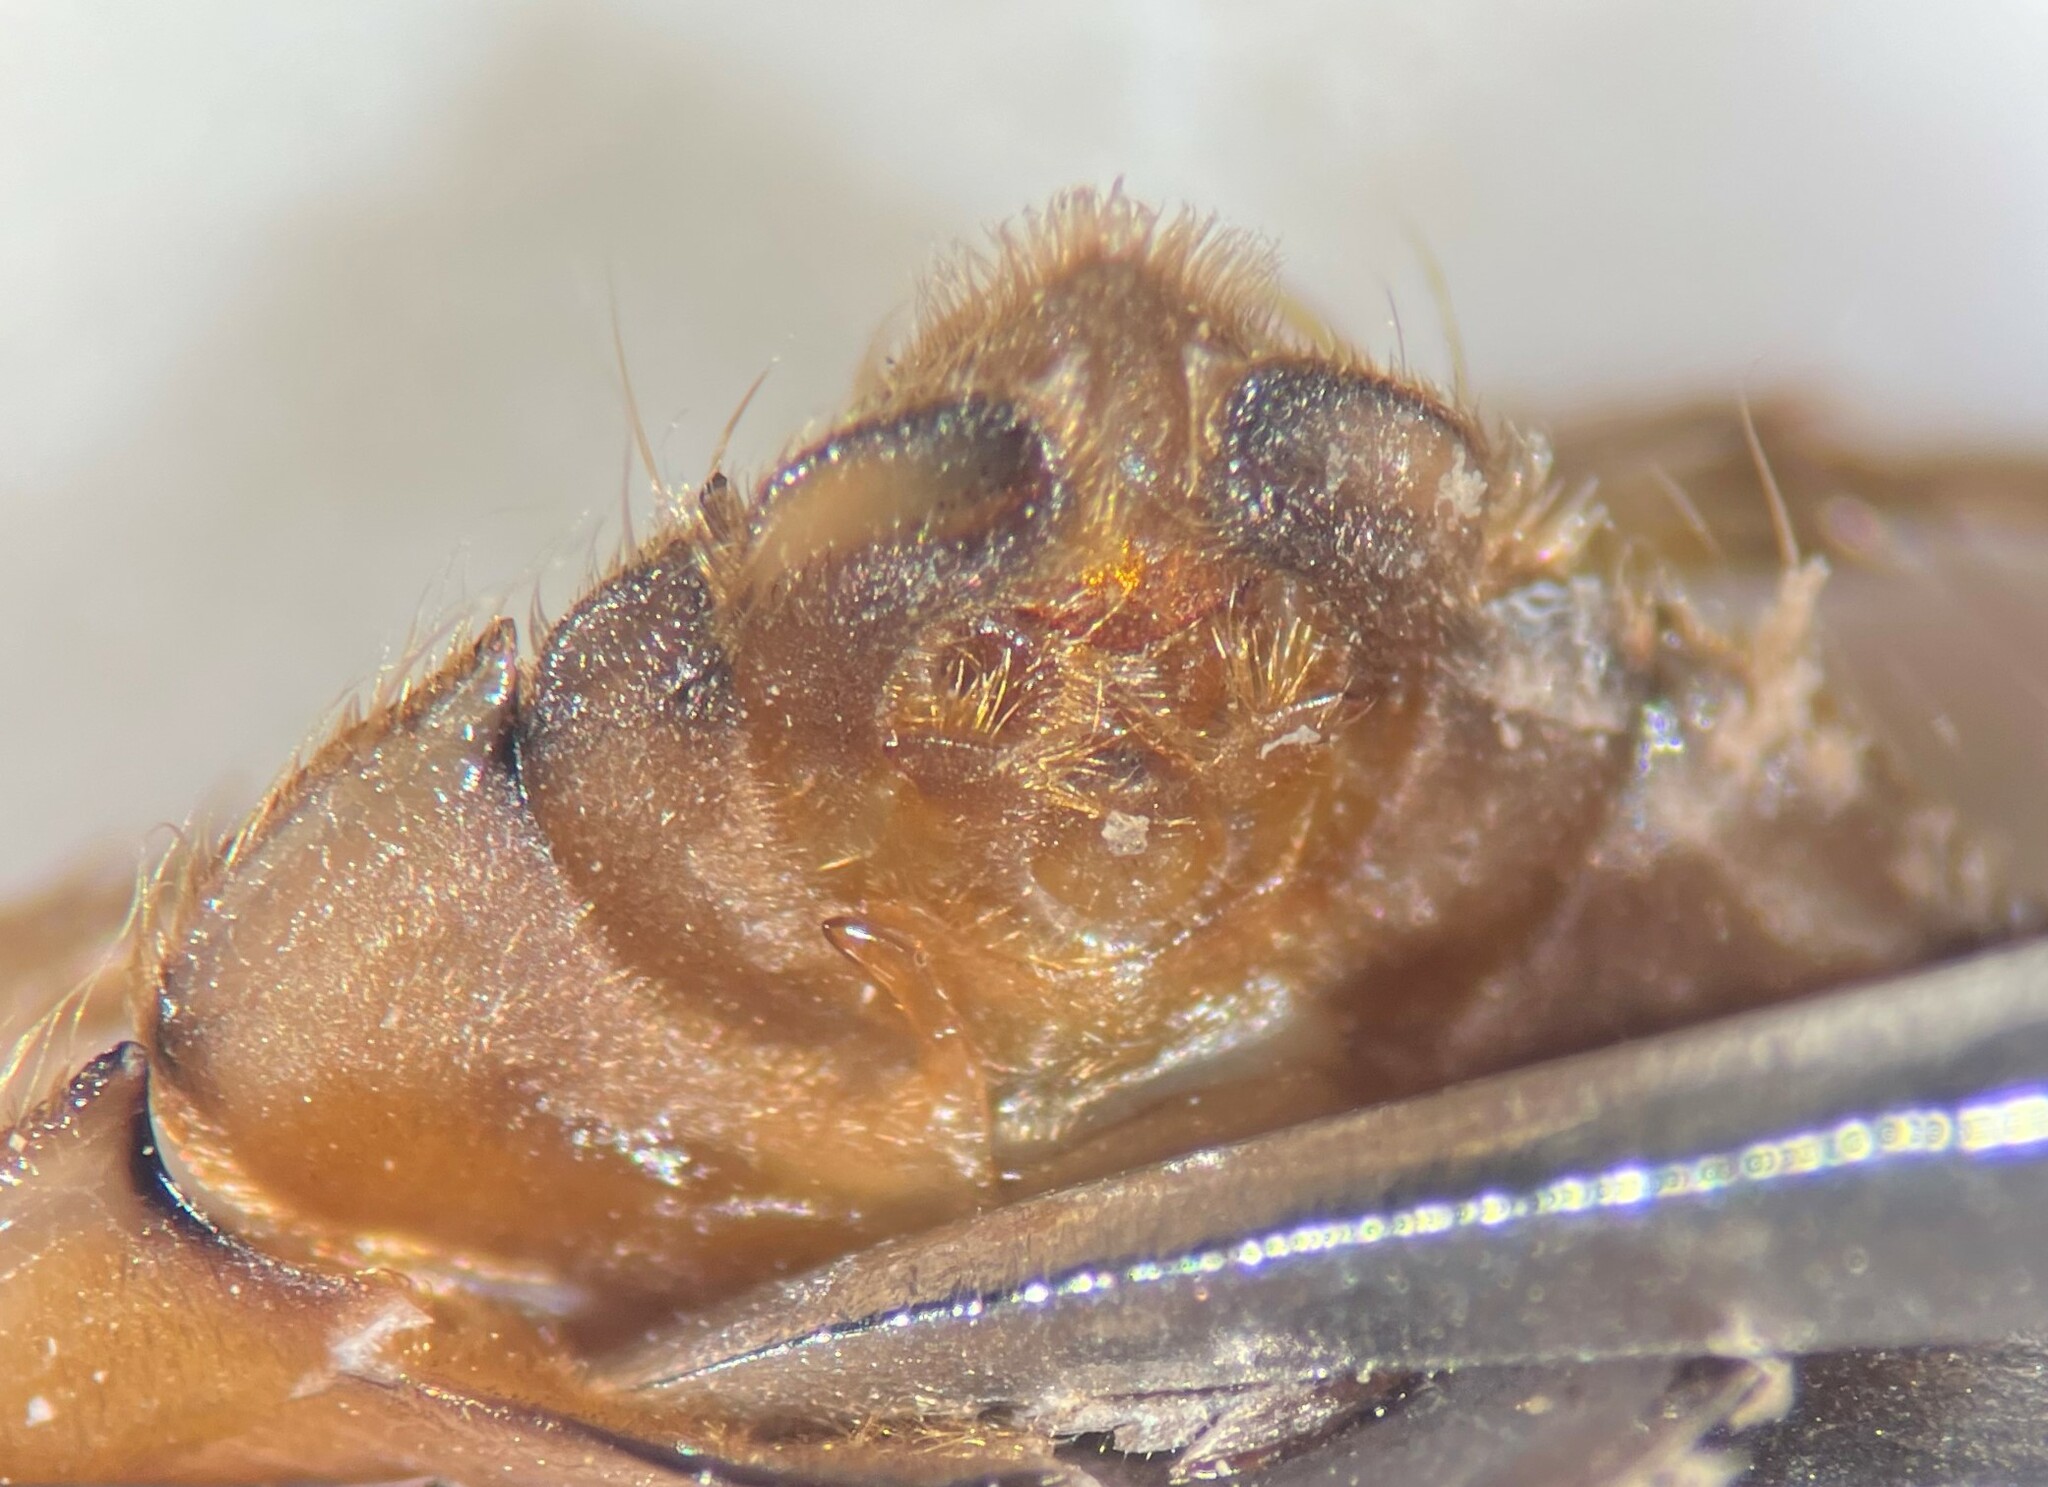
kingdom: Animalia
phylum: Arthropoda
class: Insecta
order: Hemiptera
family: Naucoridae
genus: Ambrysus
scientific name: Ambrysus arizonus
